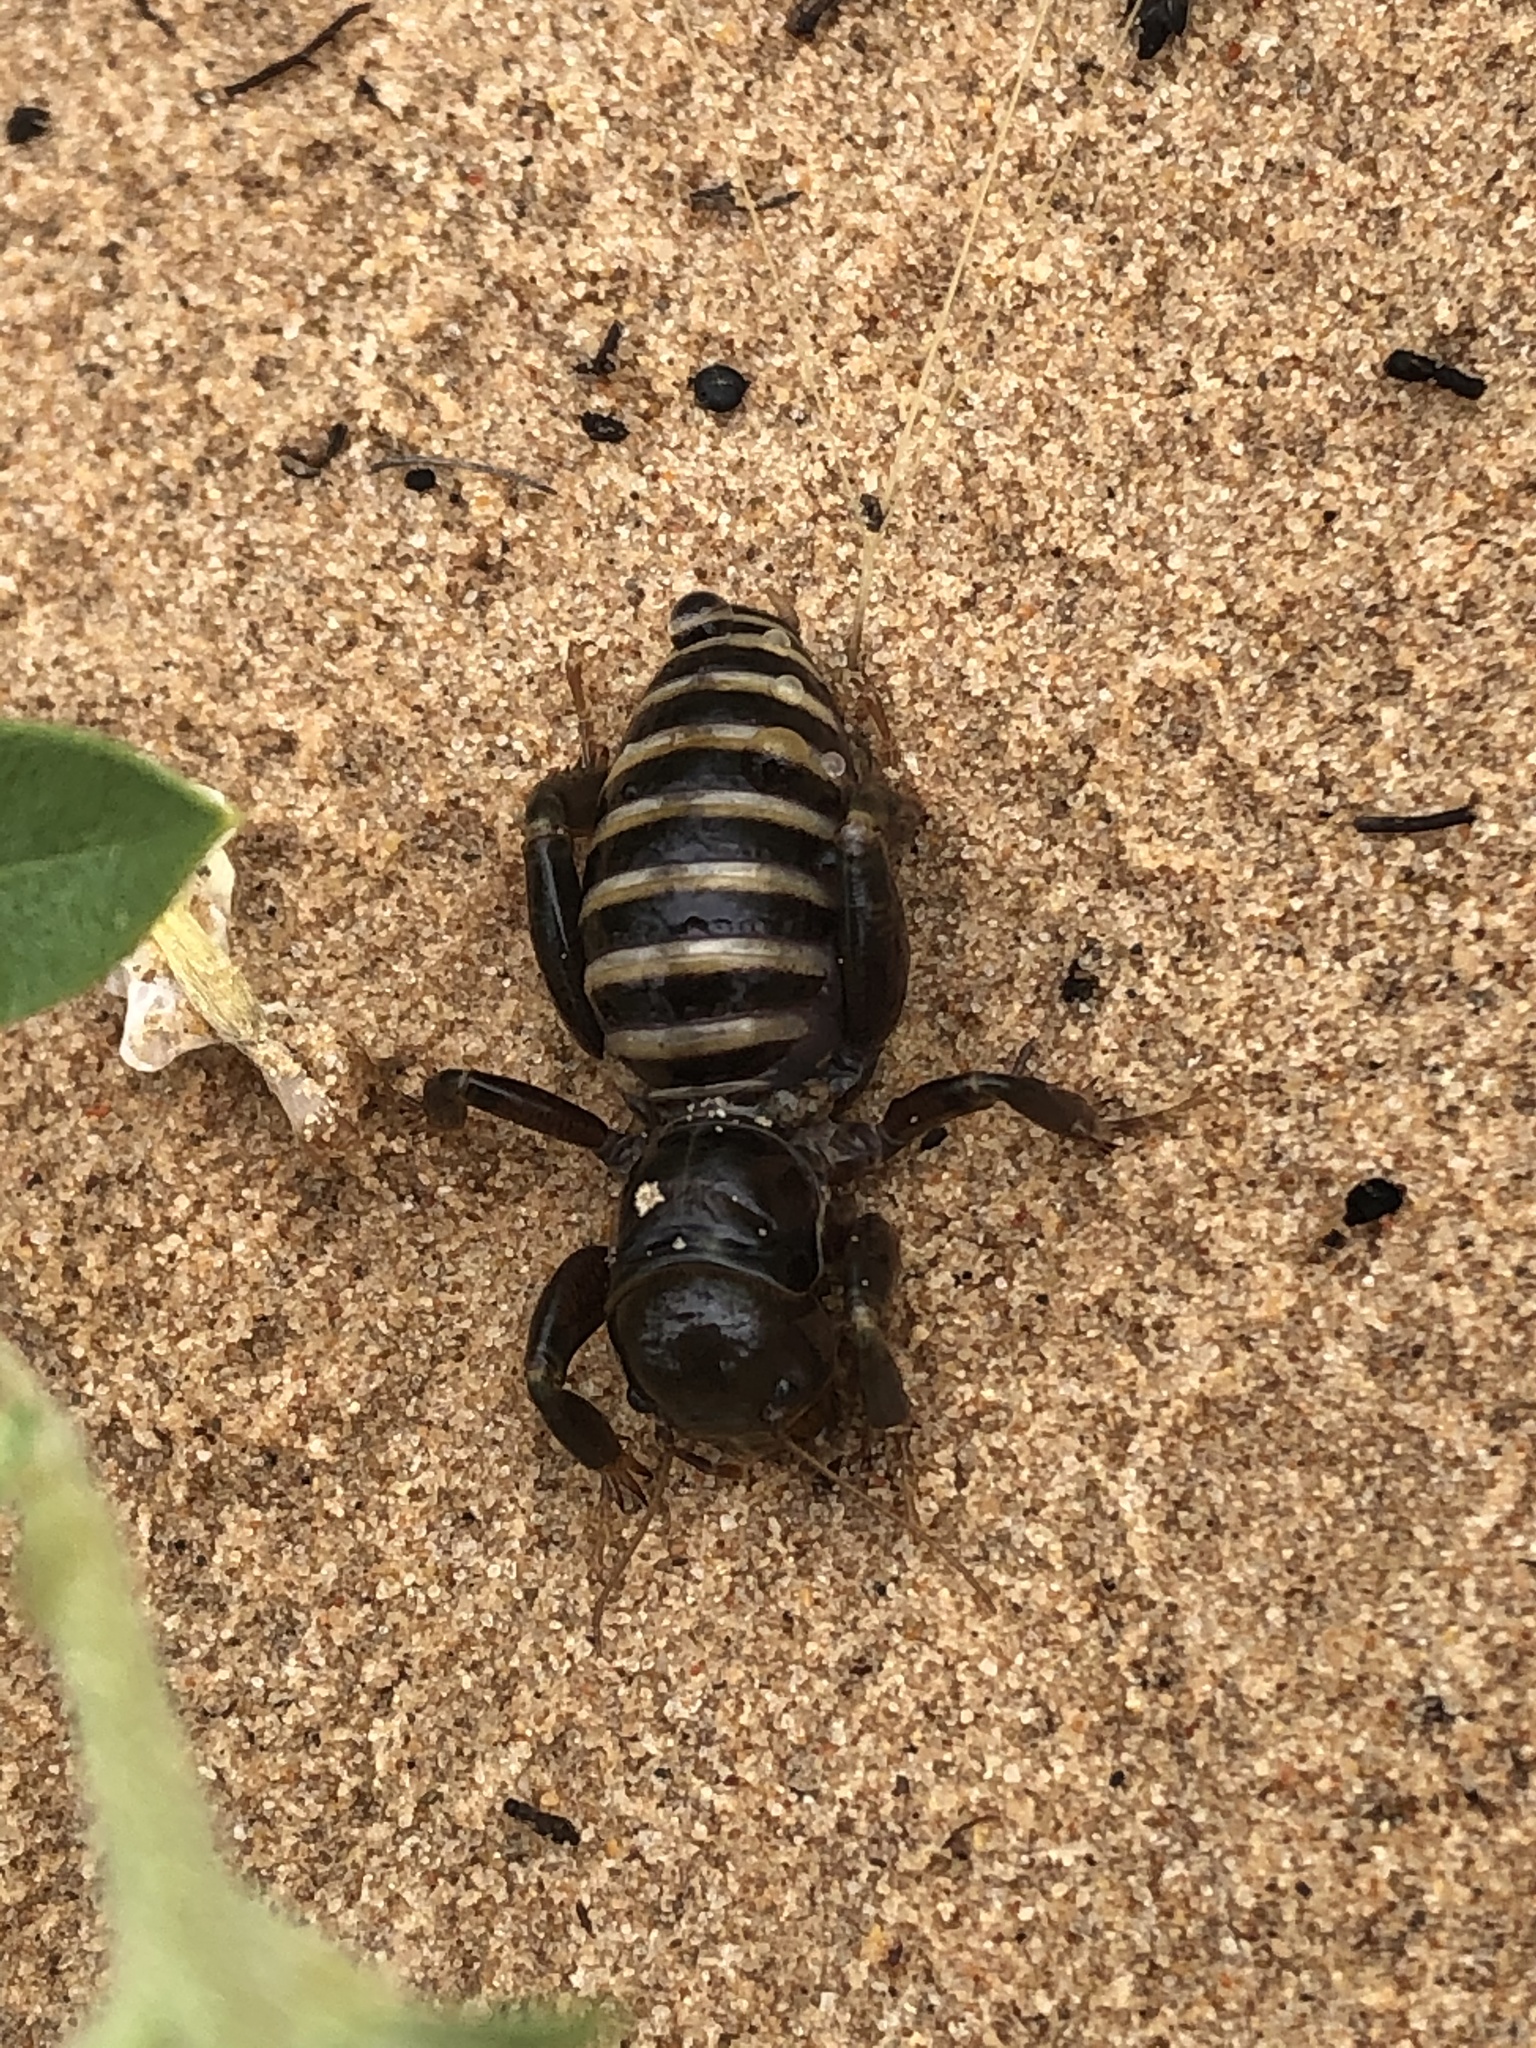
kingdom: Animalia
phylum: Arthropoda
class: Insecta
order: Orthoptera
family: Stenopelmatidae
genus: Ammopelmatus
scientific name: Ammopelmatus mescaleroensis
